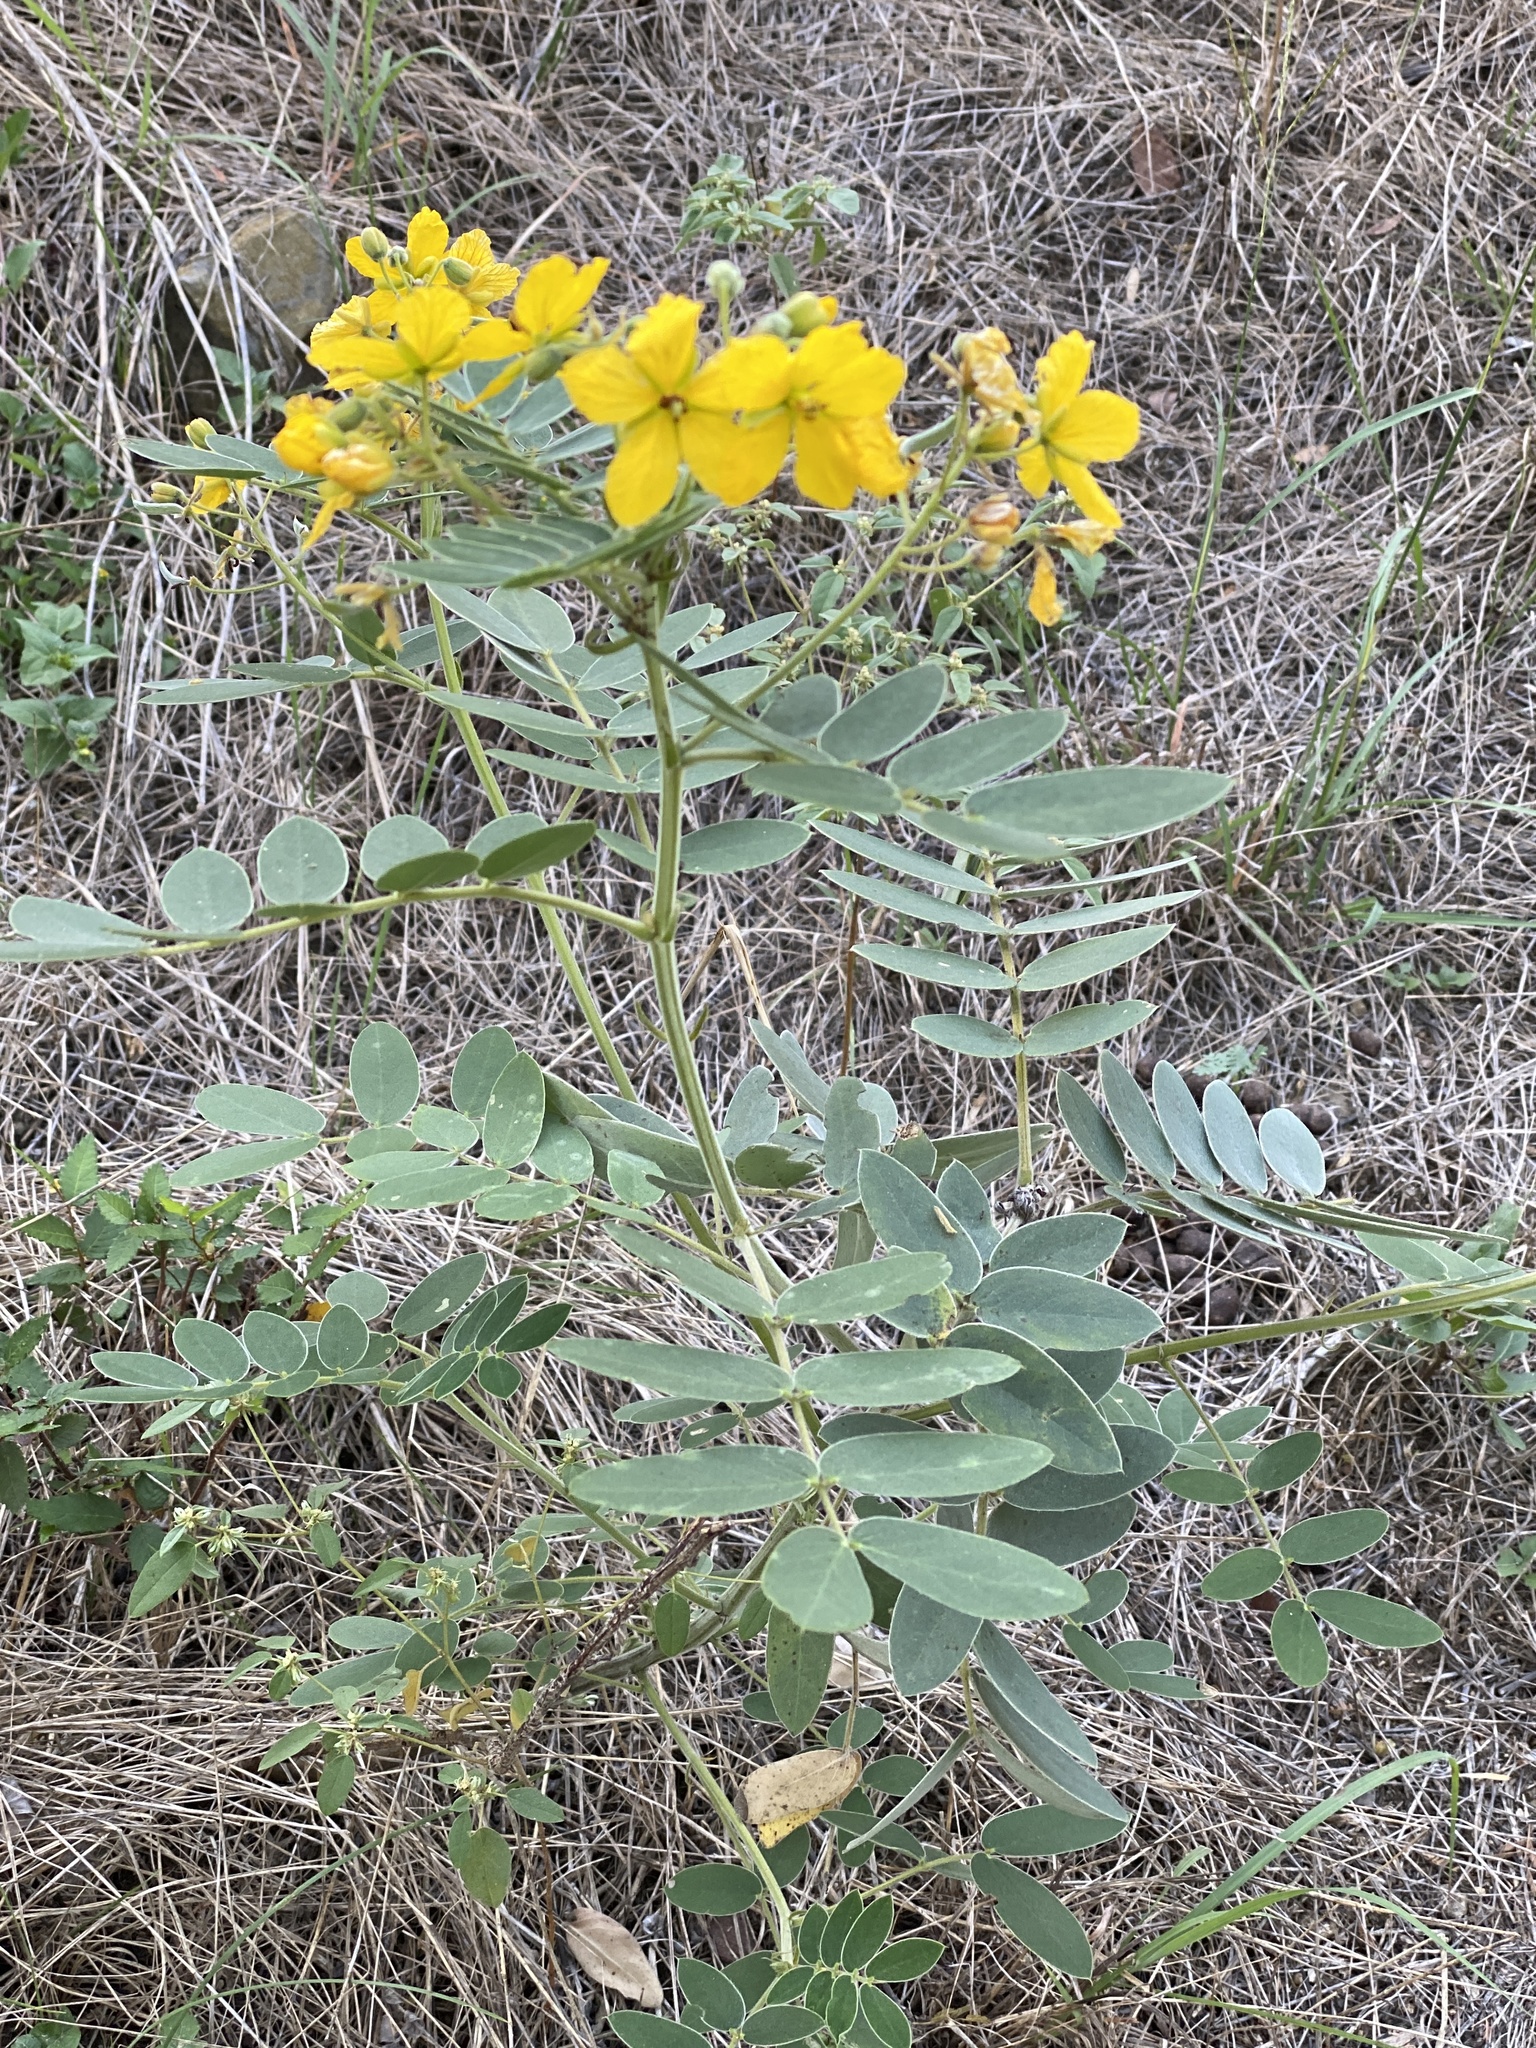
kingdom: Plantae
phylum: Tracheophyta
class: Magnoliopsida
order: Fabales
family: Fabaceae
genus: Senna
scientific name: Senna lindheimeriana
